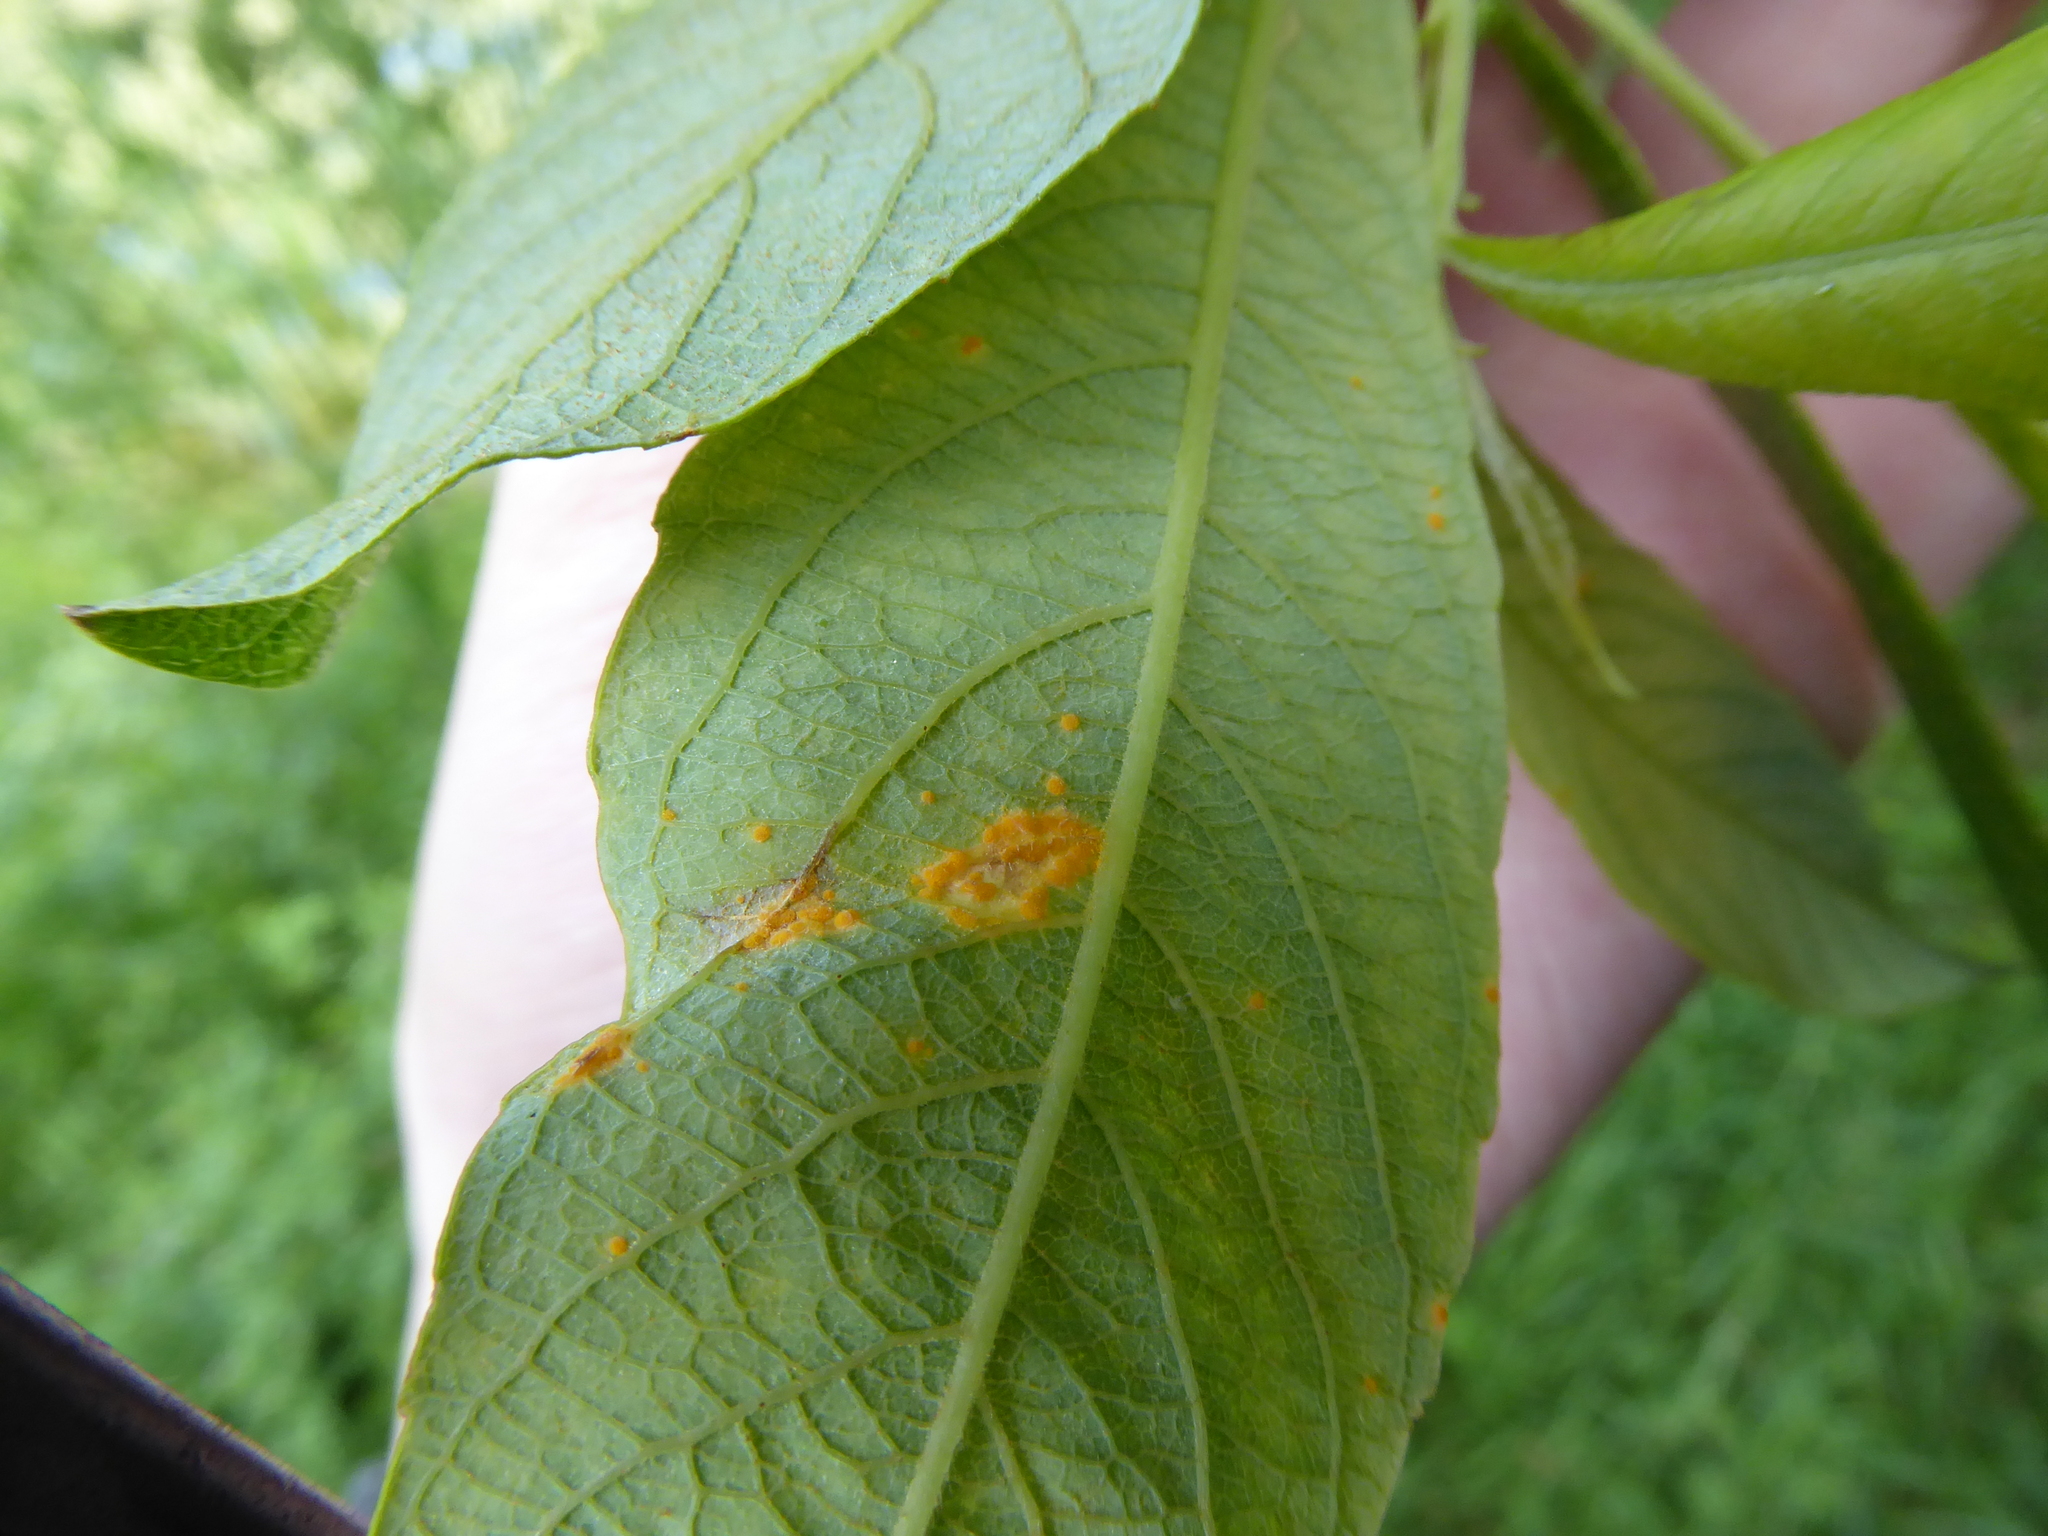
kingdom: Fungi
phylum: Basidiomycota
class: Pucciniomycetes
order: Pucciniales
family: Melampsoraceae
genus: Melampsora
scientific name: Melampsora
